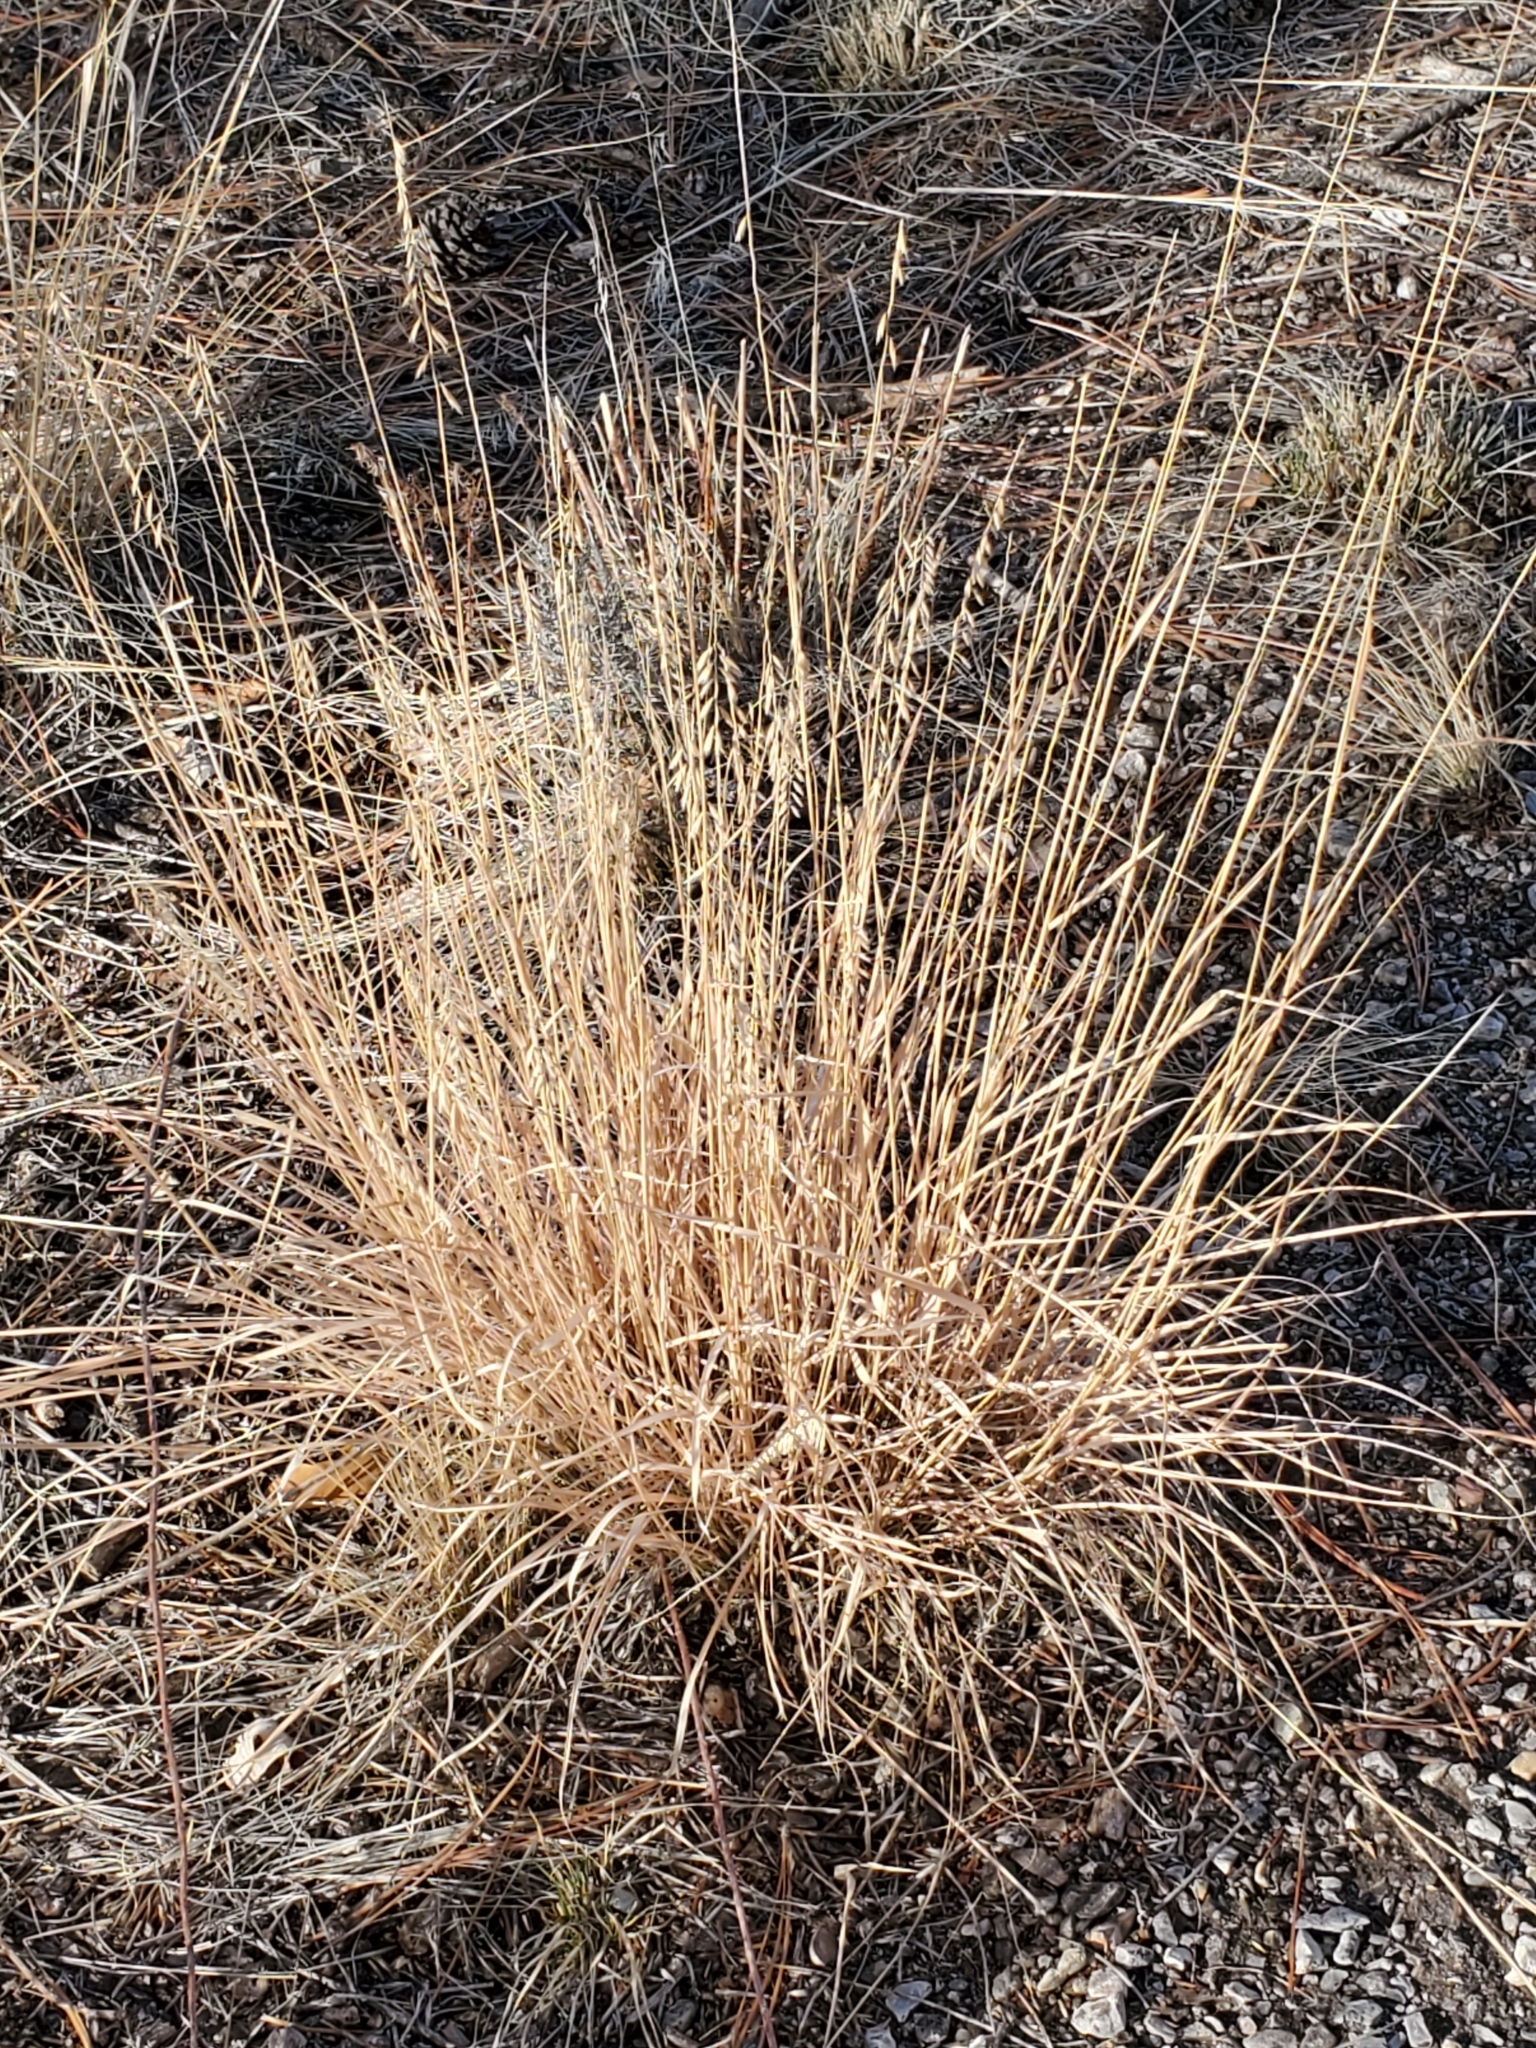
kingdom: Plantae
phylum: Tracheophyta
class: Liliopsida
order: Poales
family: Poaceae
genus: Bouteloua
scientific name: Bouteloua curtipendula
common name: Side-oats grama
